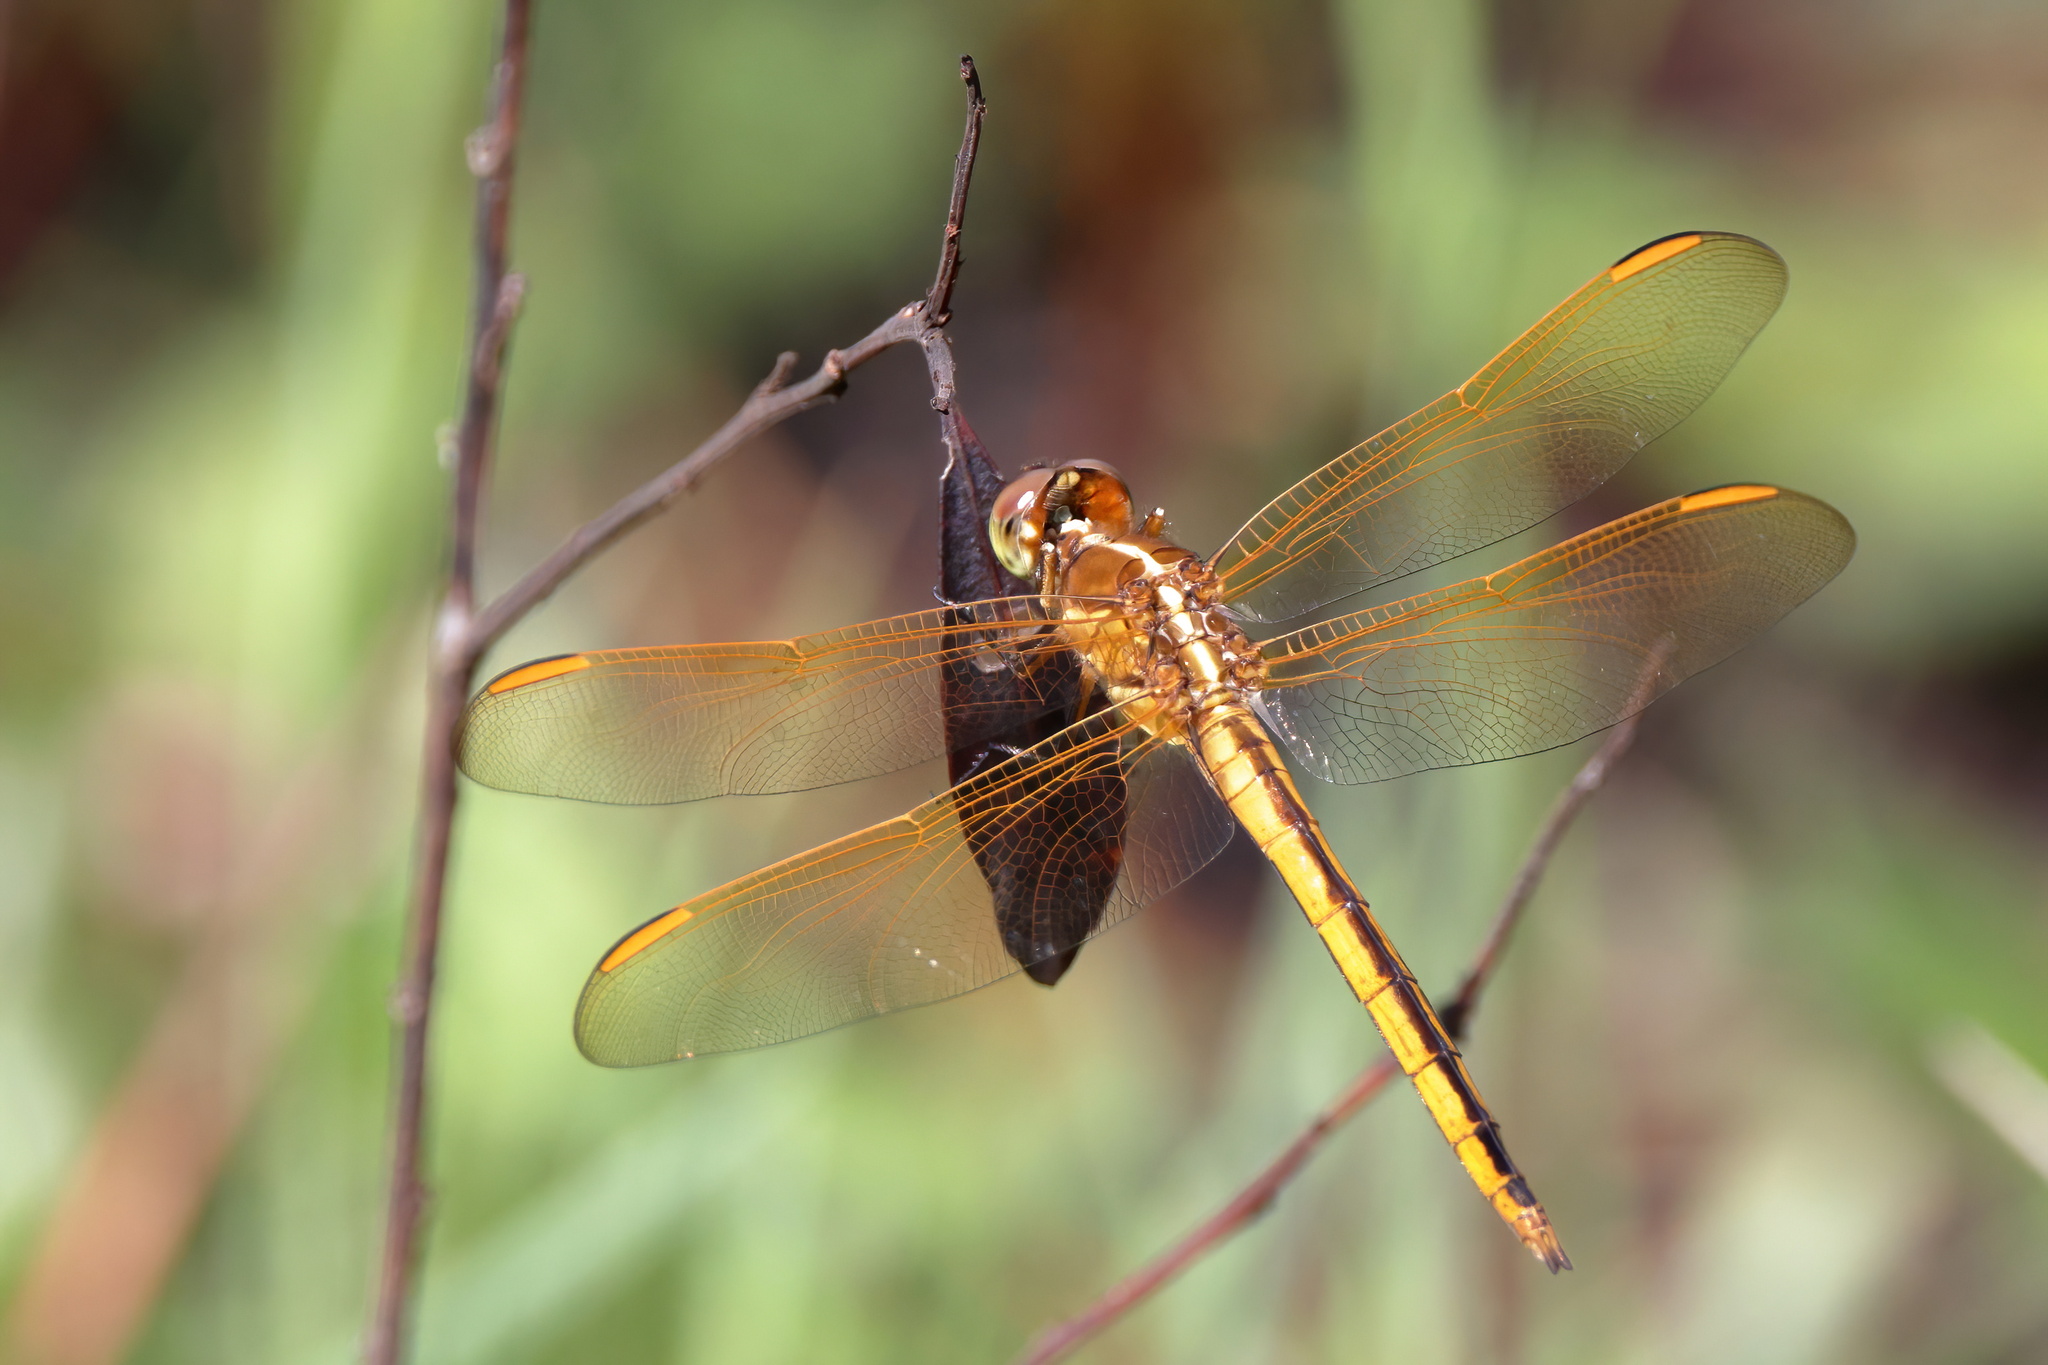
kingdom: Animalia
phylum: Arthropoda
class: Insecta
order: Odonata
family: Libellulidae
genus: Libellula
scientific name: Libellula auripennis
